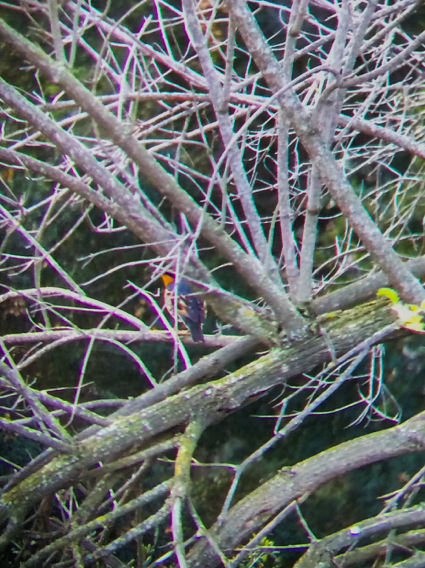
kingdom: Animalia
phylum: Chordata
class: Aves
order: Passeriformes
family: Turdidae
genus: Ixoreus
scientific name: Ixoreus naevius
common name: Varied thrush
